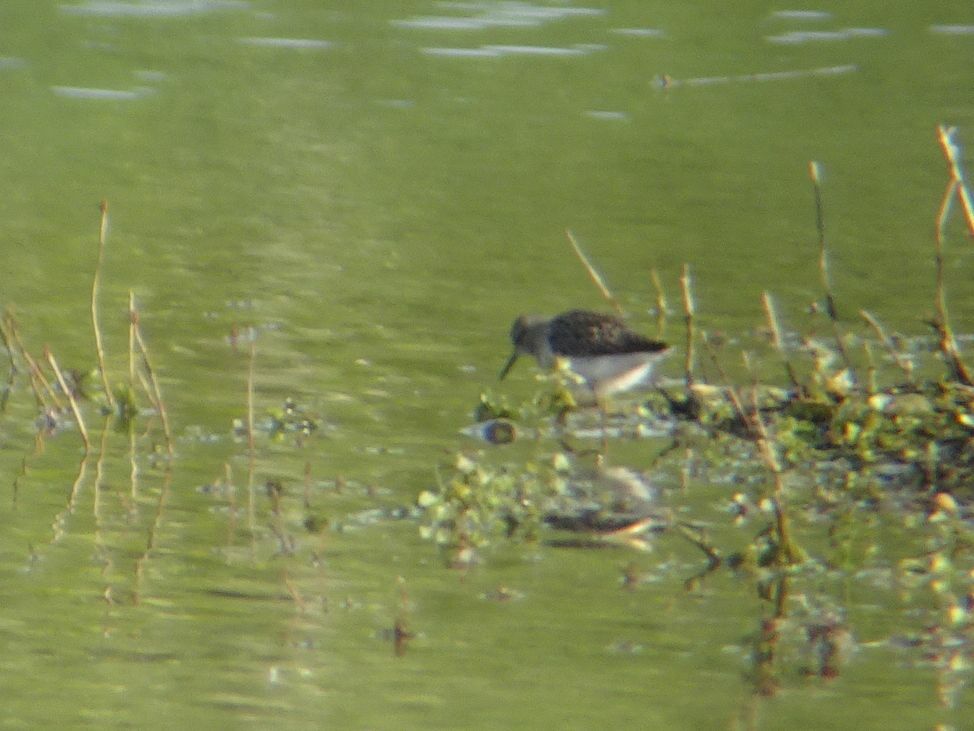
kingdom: Animalia
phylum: Chordata
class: Aves
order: Charadriiformes
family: Scolopacidae
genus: Tringa
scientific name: Tringa glareola
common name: Wood sandpiper
